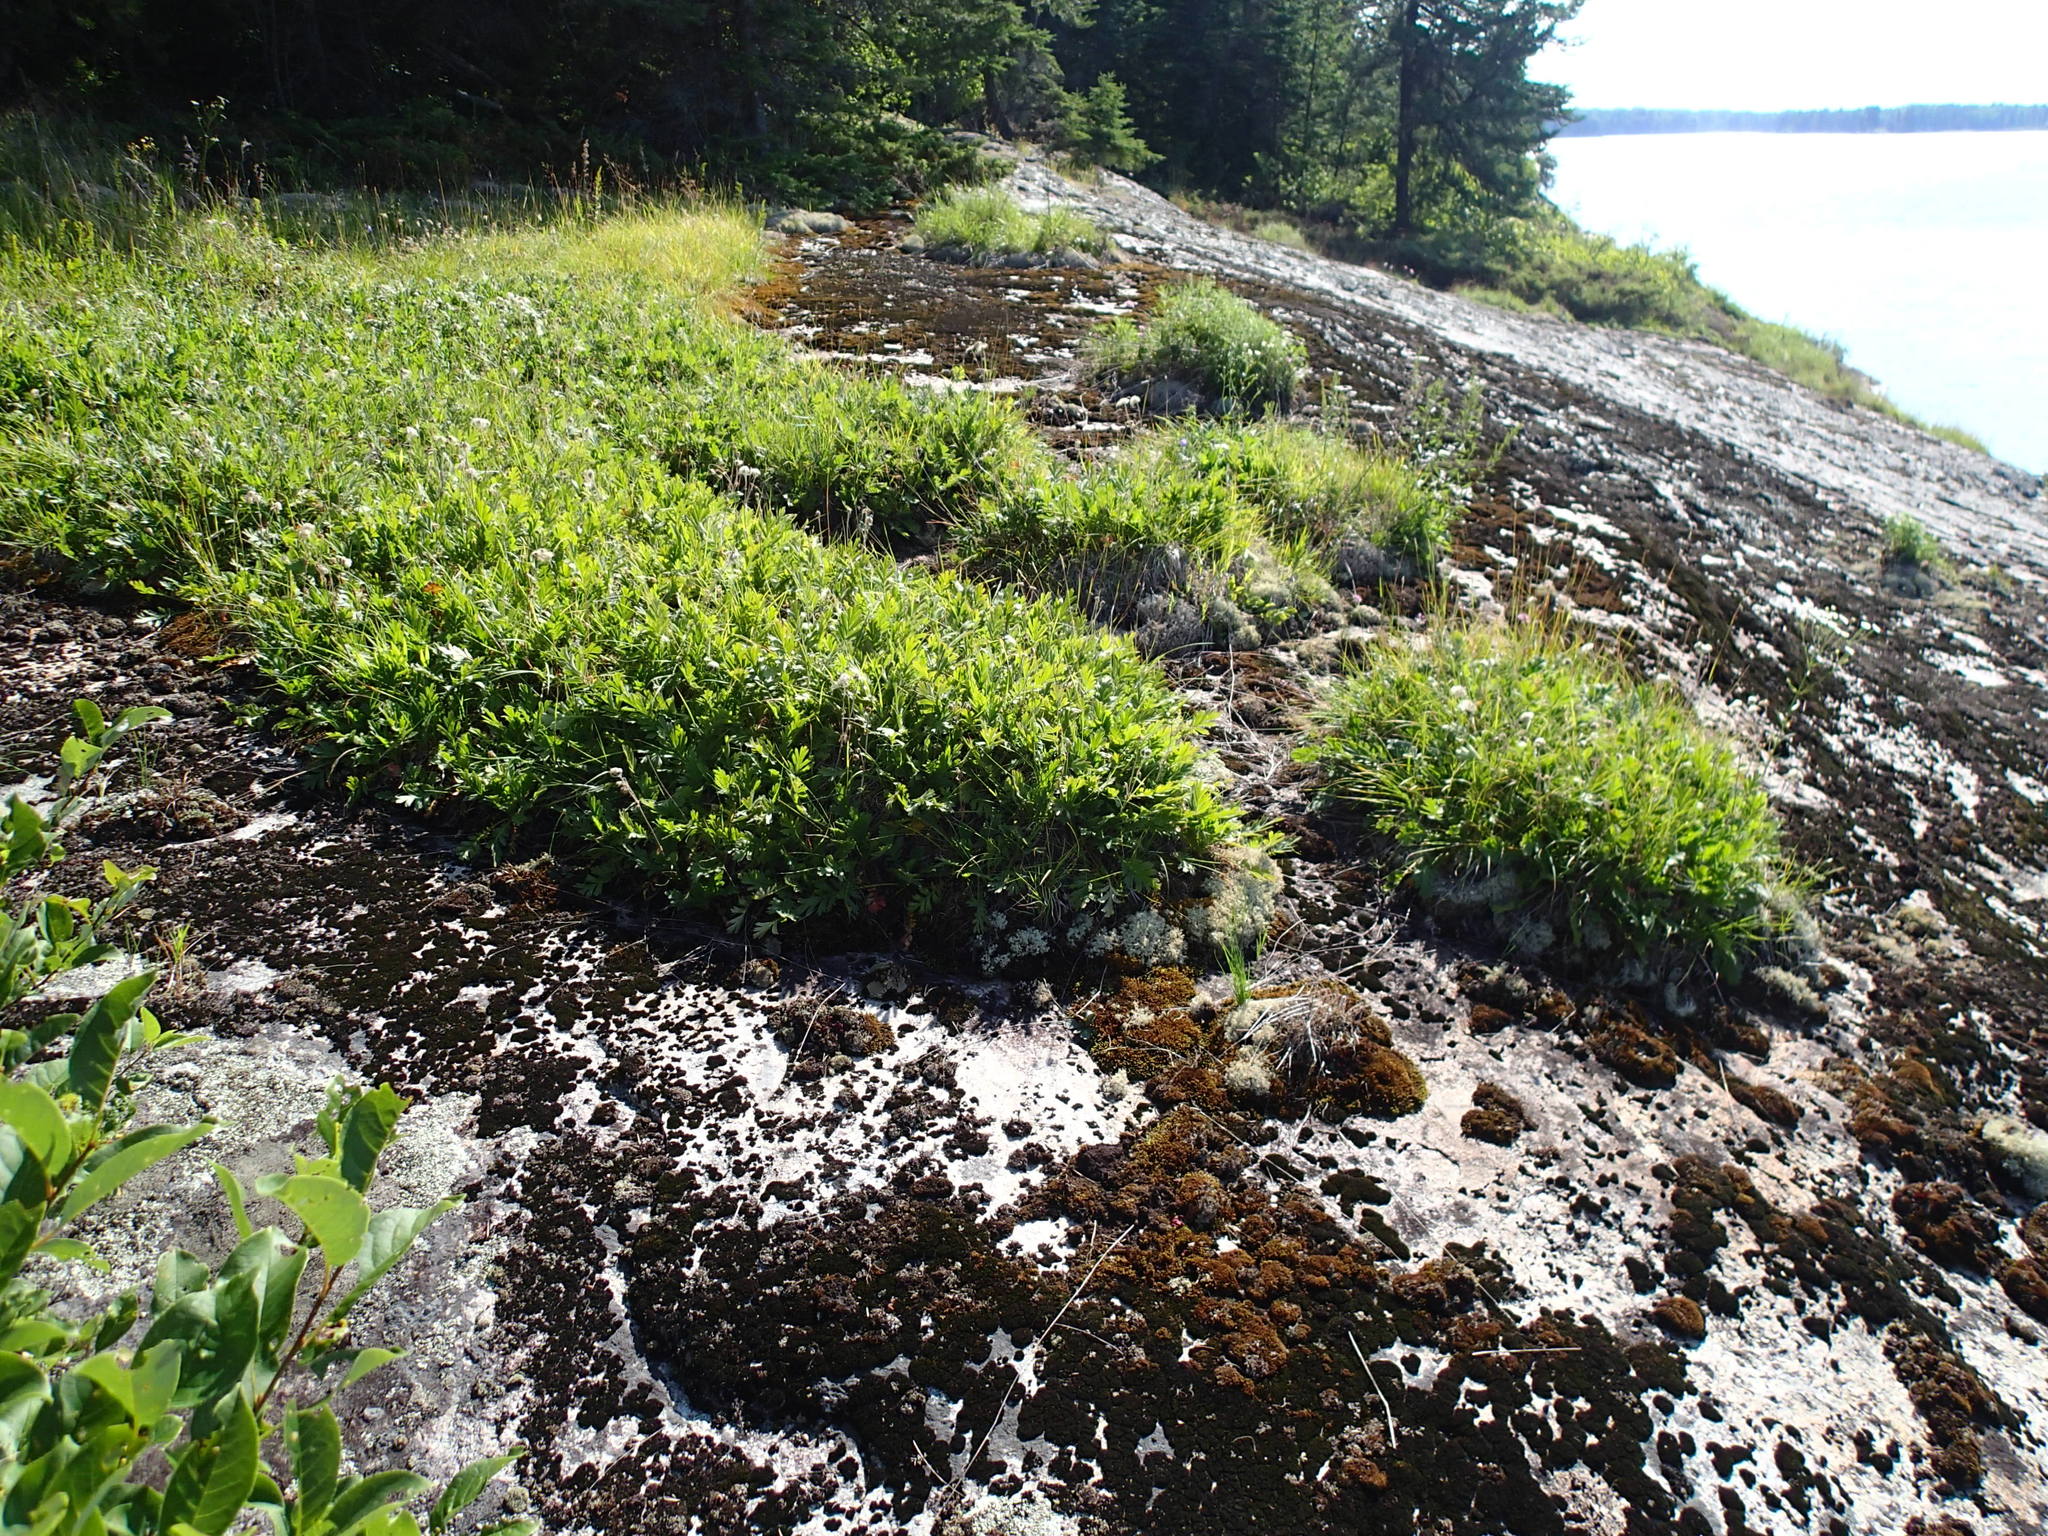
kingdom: Plantae
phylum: Tracheophyta
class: Magnoliopsida
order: Rosales
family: Rosaceae
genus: Geum
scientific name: Geum triflorum
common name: Old man's whiskers
